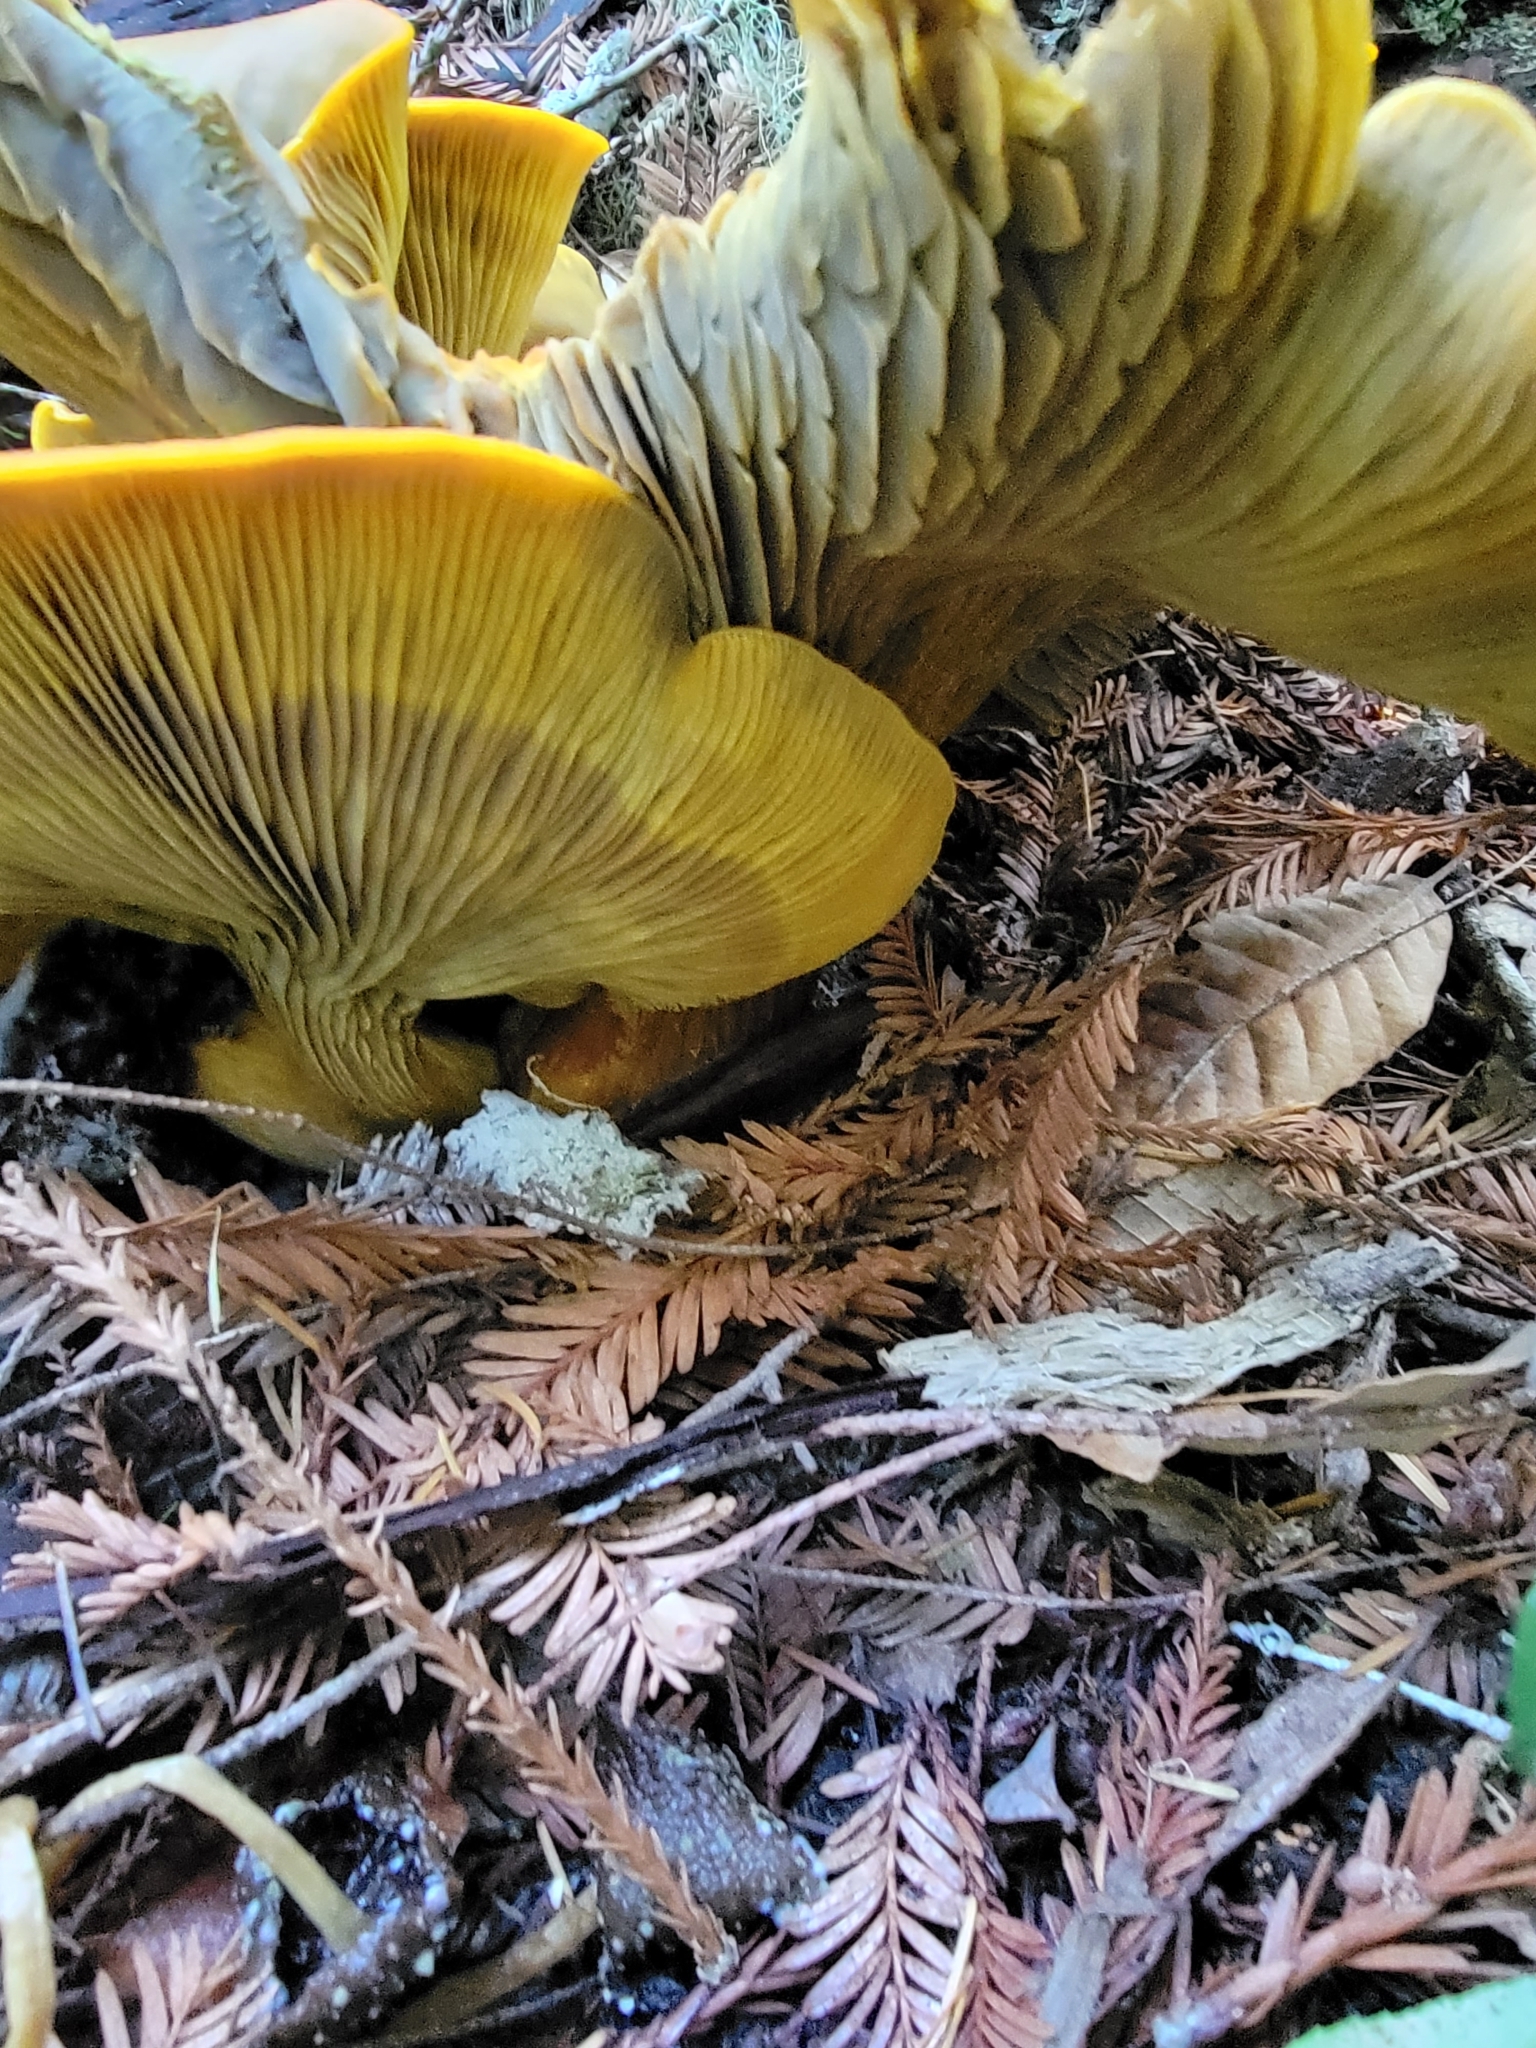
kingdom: Fungi
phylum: Basidiomycota
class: Agaricomycetes
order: Agaricales
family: Omphalotaceae
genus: Omphalotus
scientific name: Omphalotus olivascens
